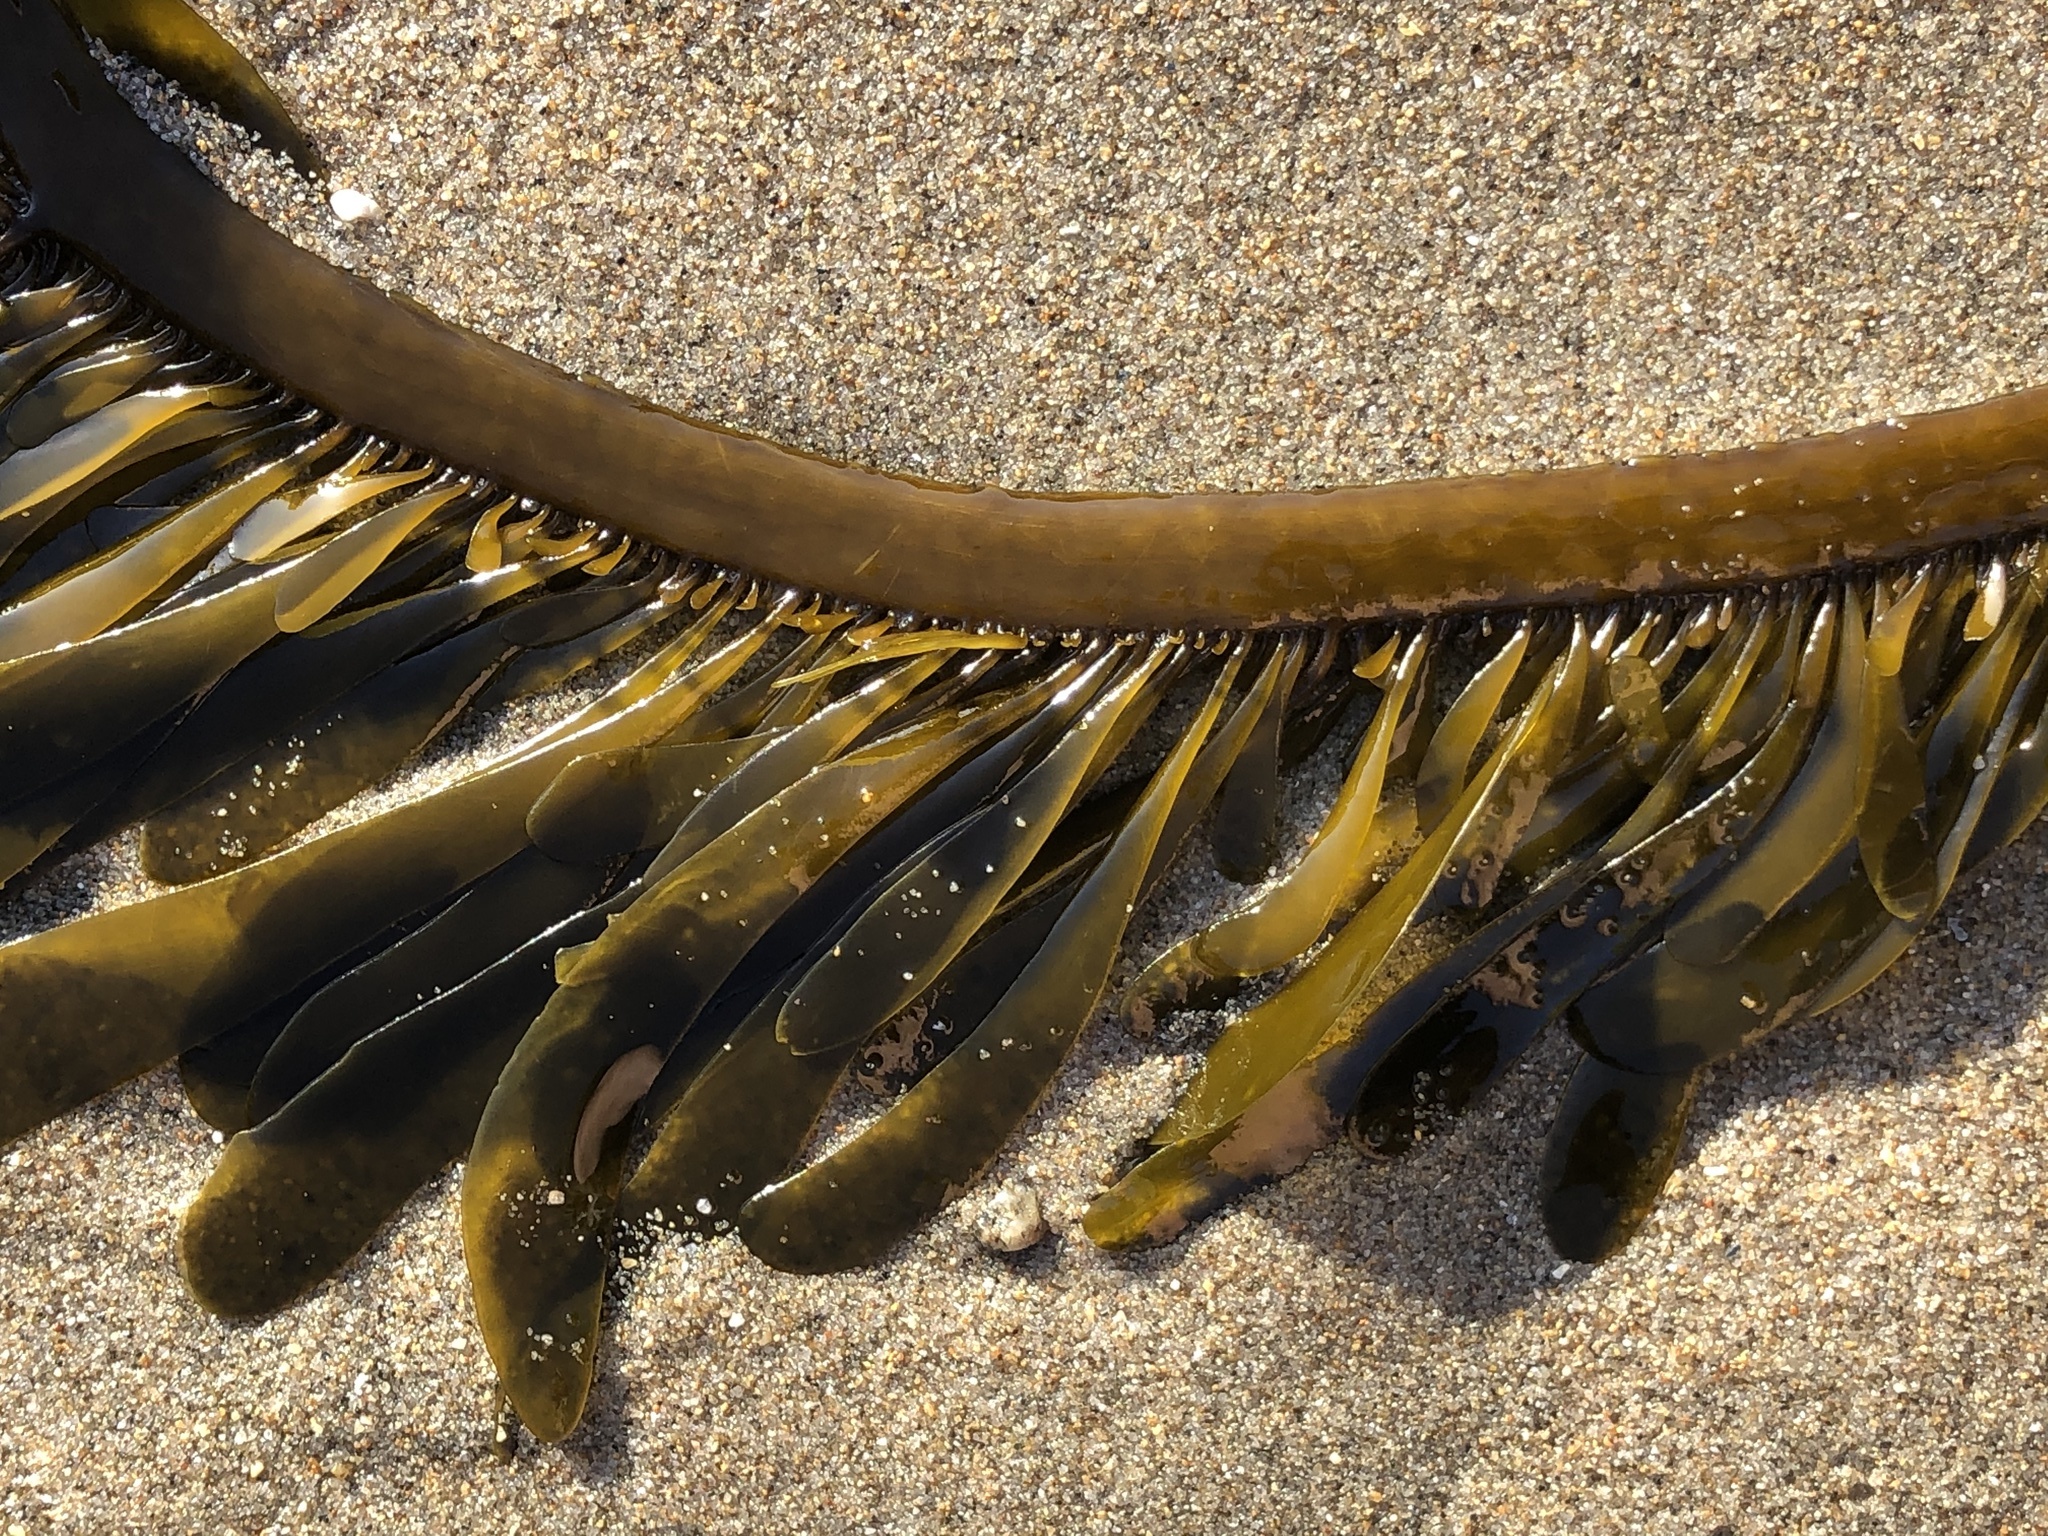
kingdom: Chromista
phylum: Ochrophyta
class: Phaeophyceae
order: Laminariales
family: Lessoniaceae
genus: Egregia
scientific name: Egregia menziesii
